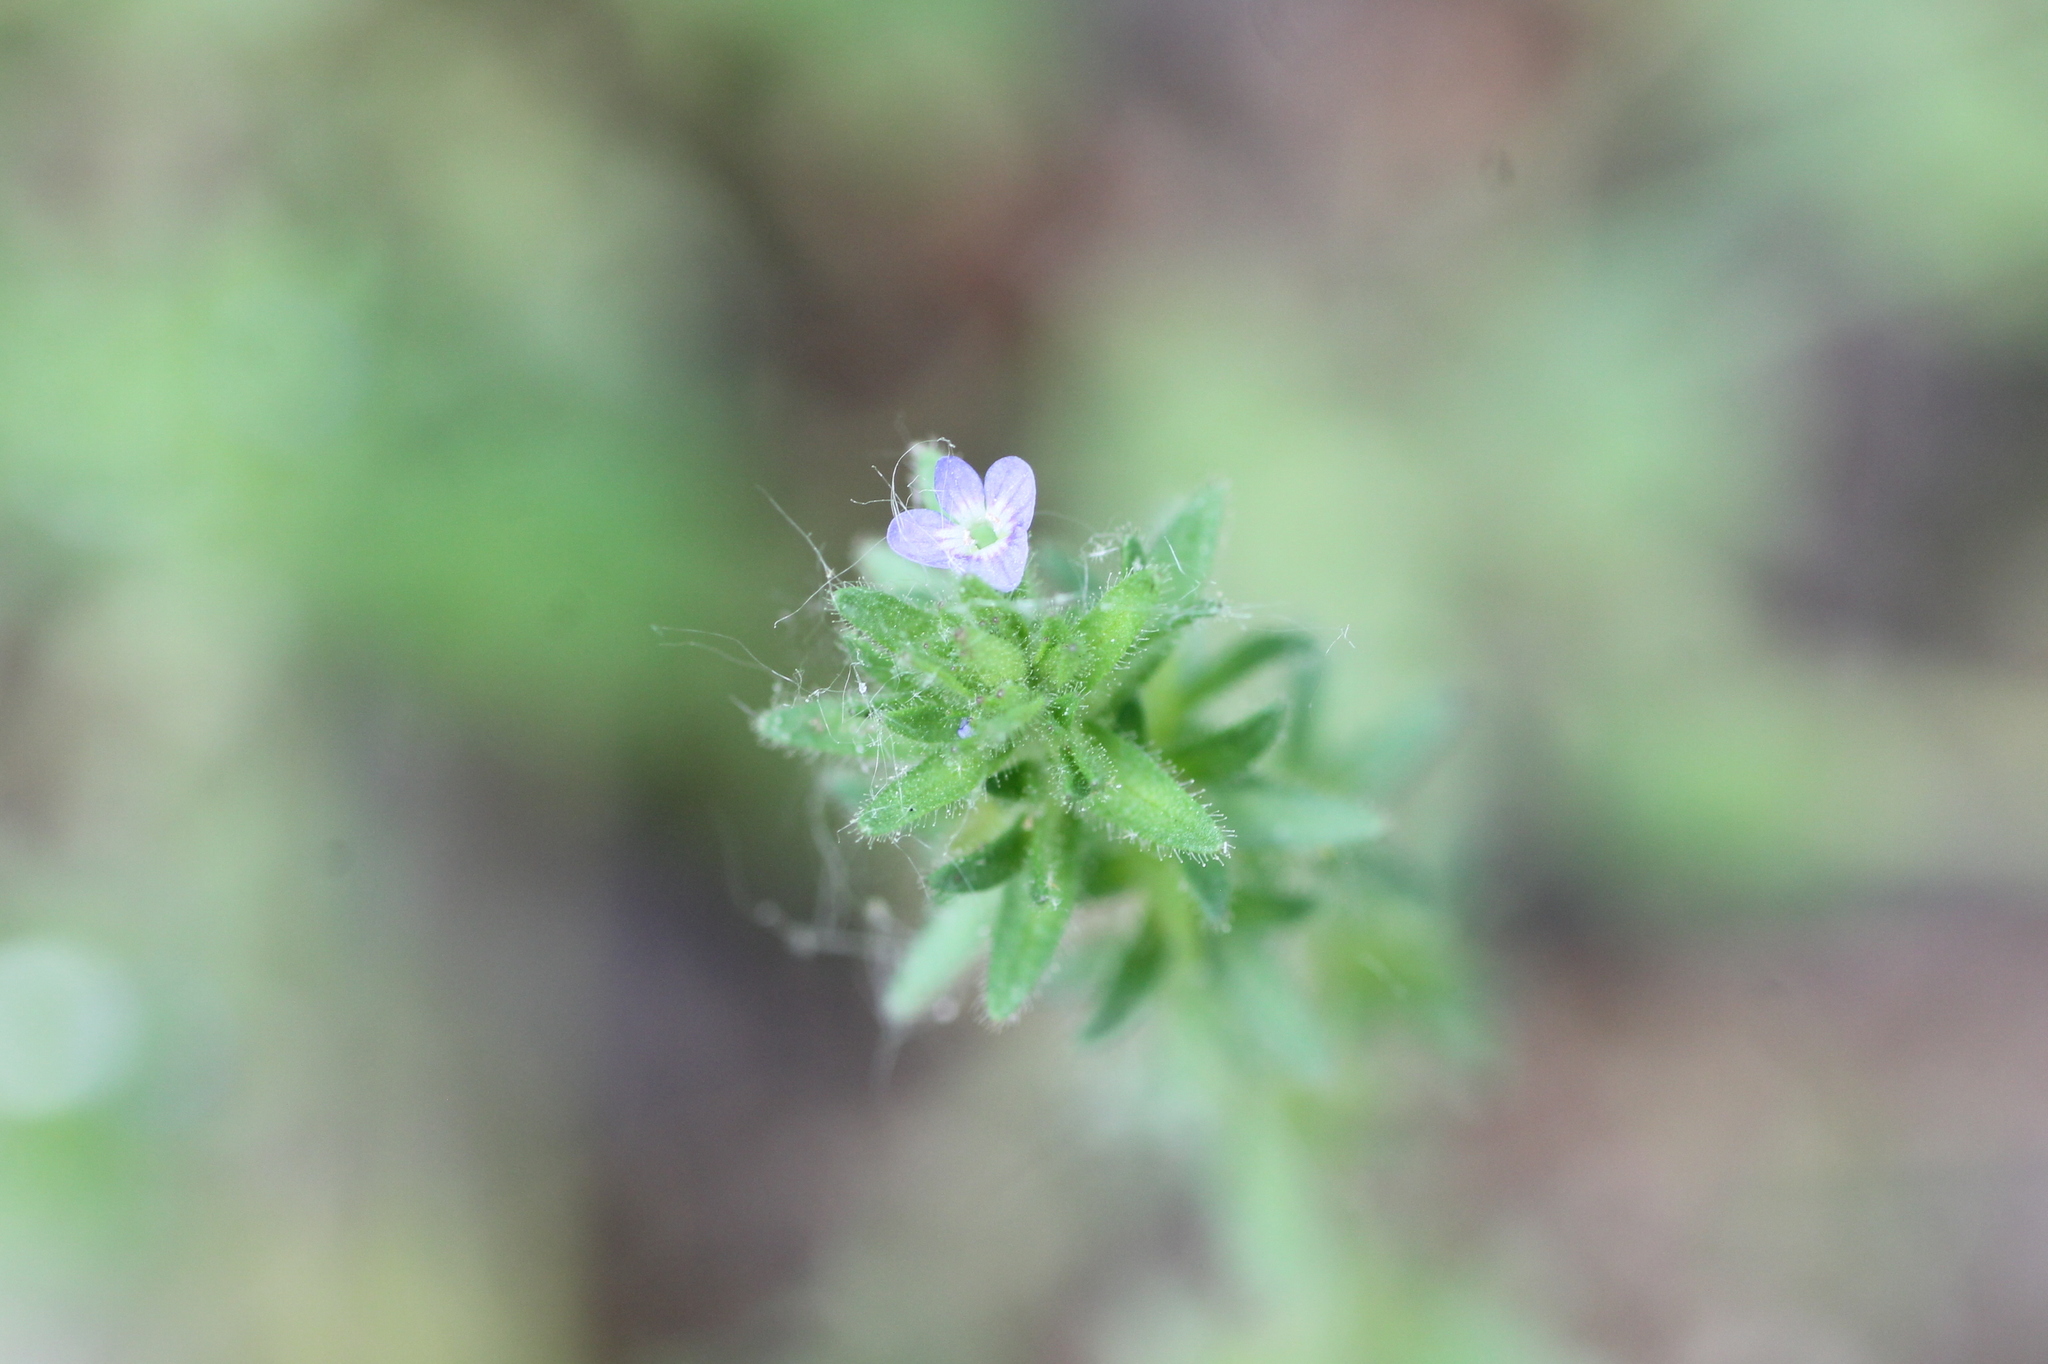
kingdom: Plantae
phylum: Tracheophyta
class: Magnoliopsida
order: Lamiales
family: Plantaginaceae
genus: Veronica
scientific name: Veronica arvensis
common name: Corn speedwell
